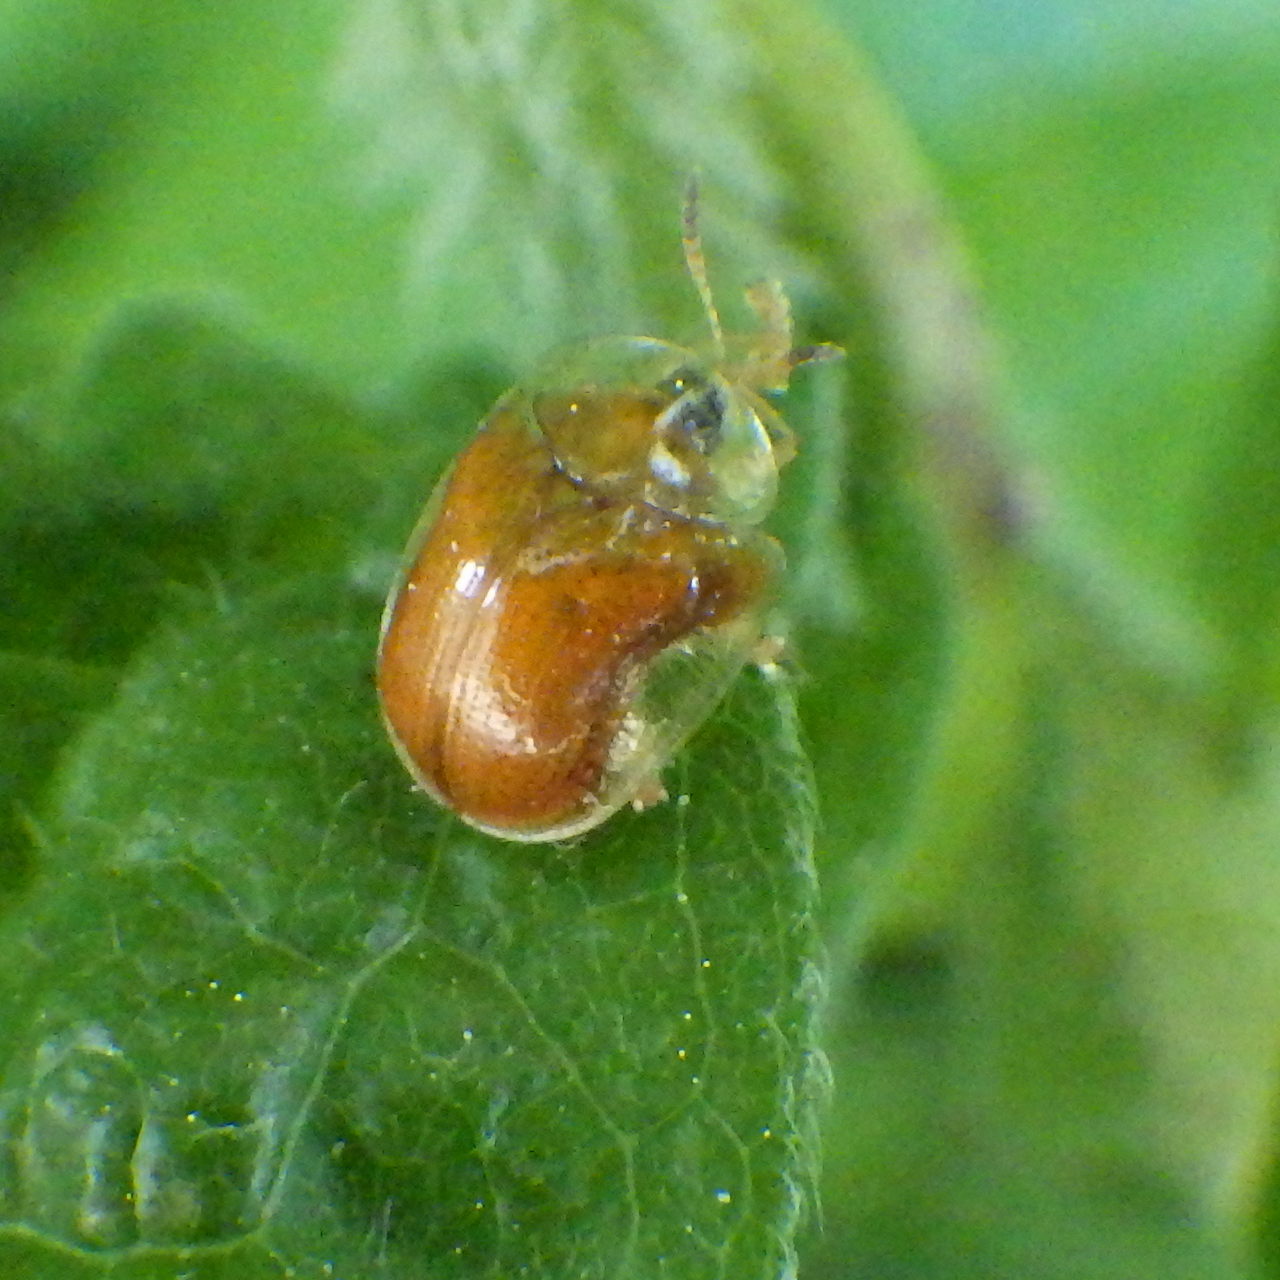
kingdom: Animalia
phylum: Arthropoda
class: Insecta
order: Coleoptera
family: Chrysomelidae
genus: Charidotella
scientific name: Charidotella purpurata
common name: Small orange tortoise beetle
